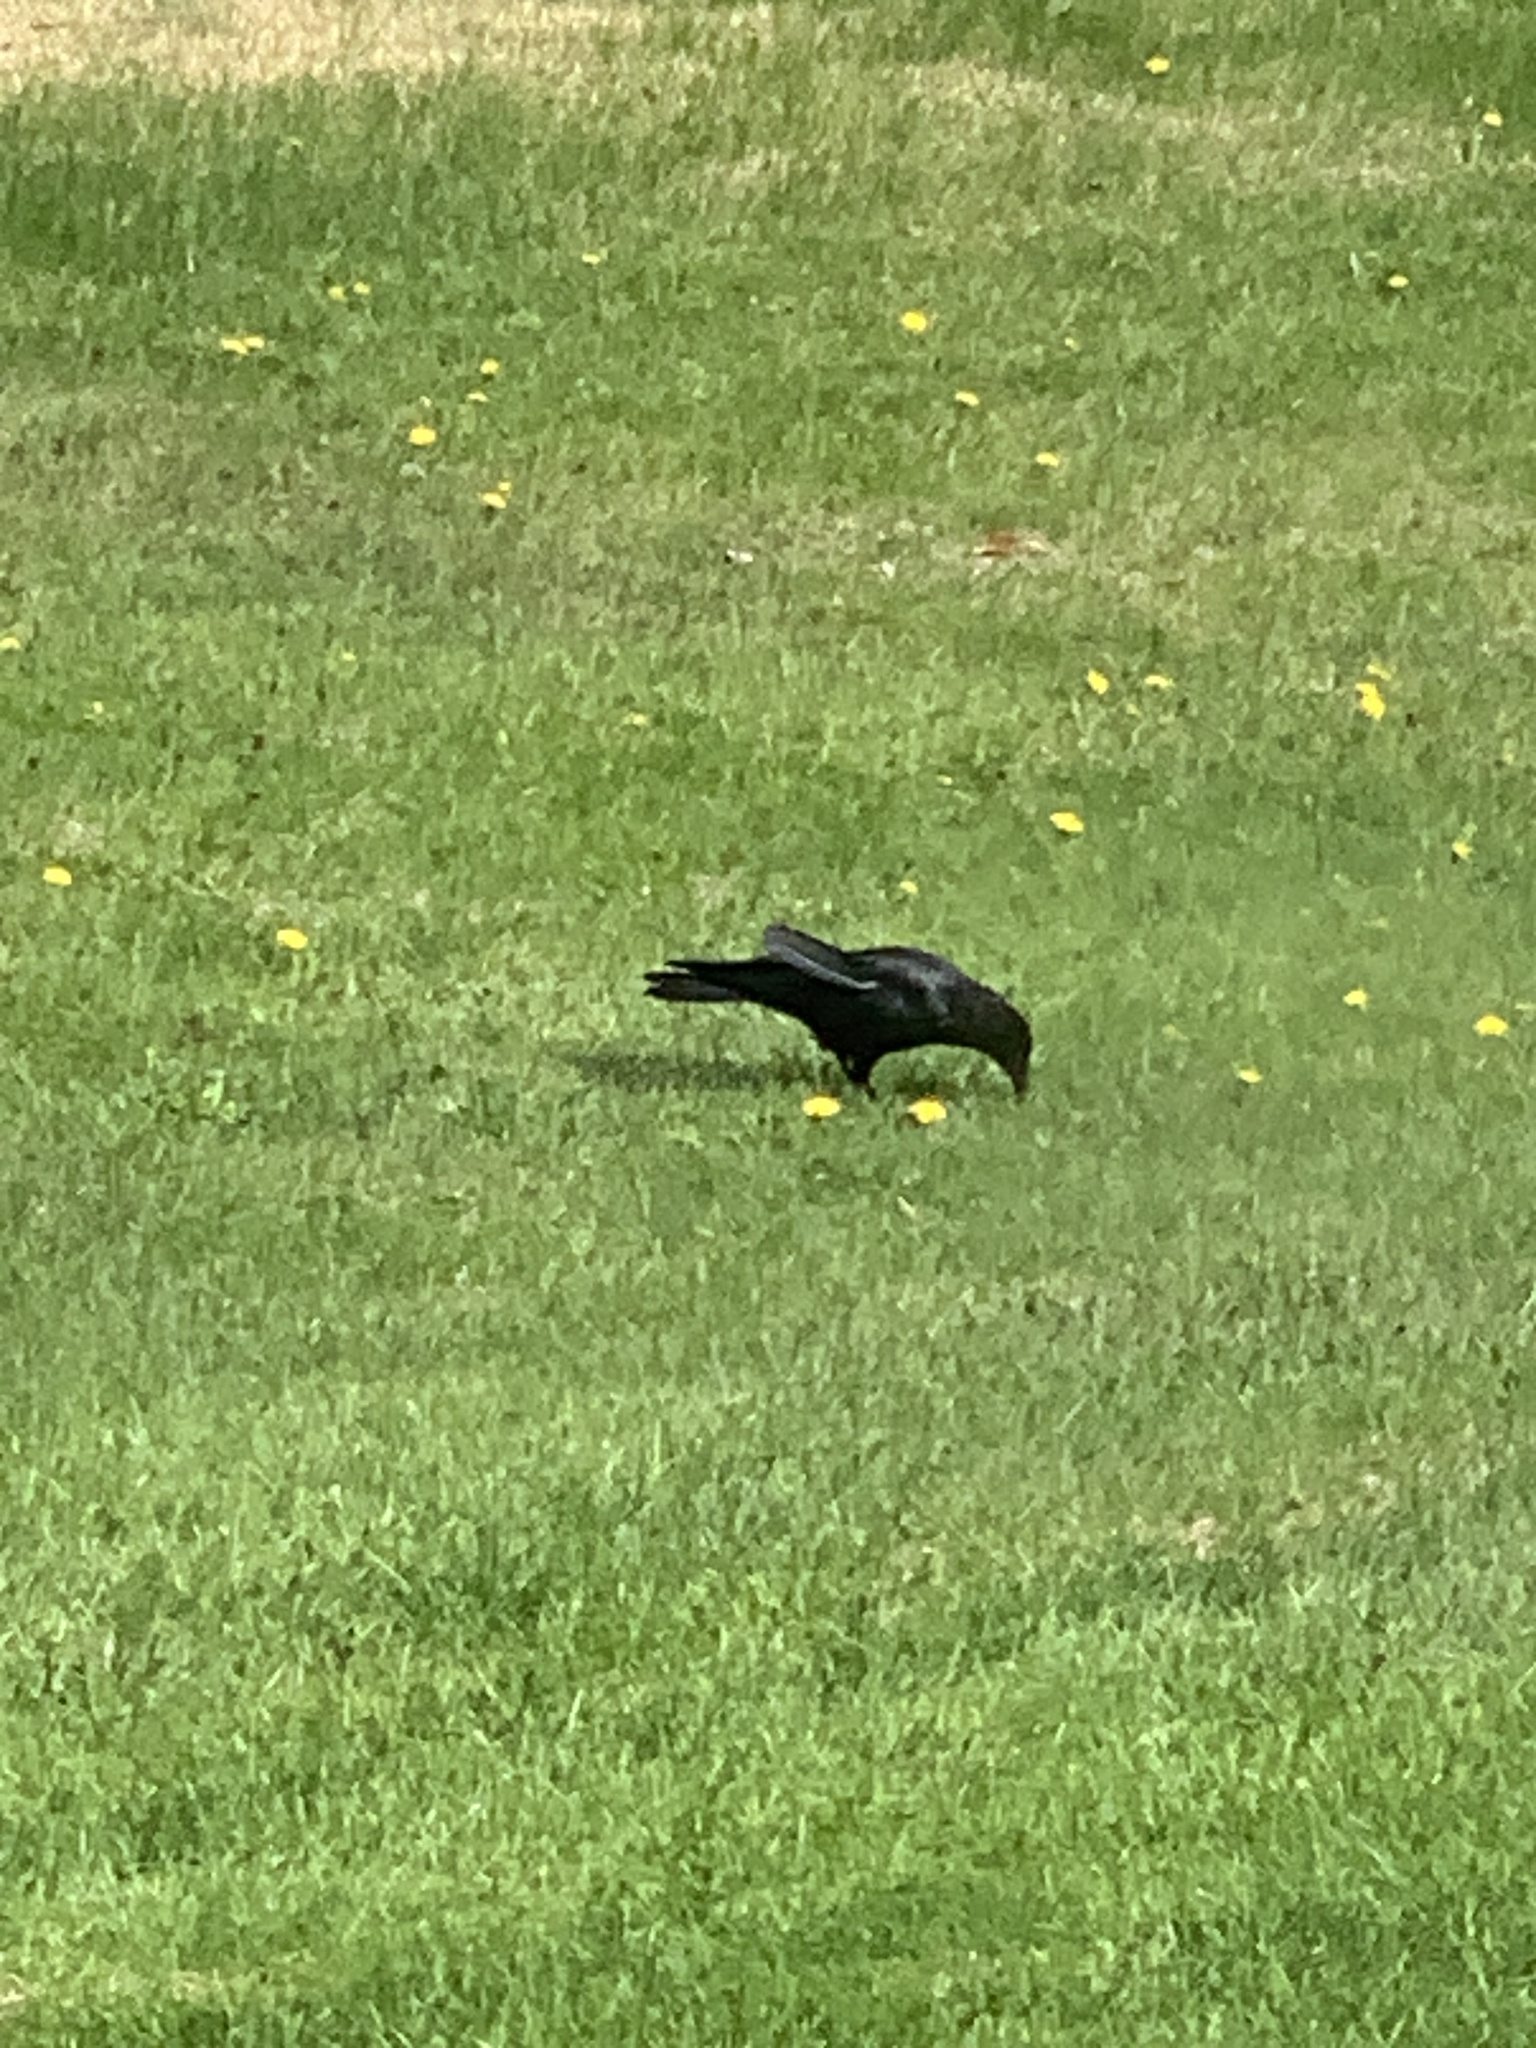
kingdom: Animalia
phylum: Chordata
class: Aves
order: Passeriformes
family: Corvidae
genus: Corvus
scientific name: Corvus brachyrhynchos
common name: American crow
